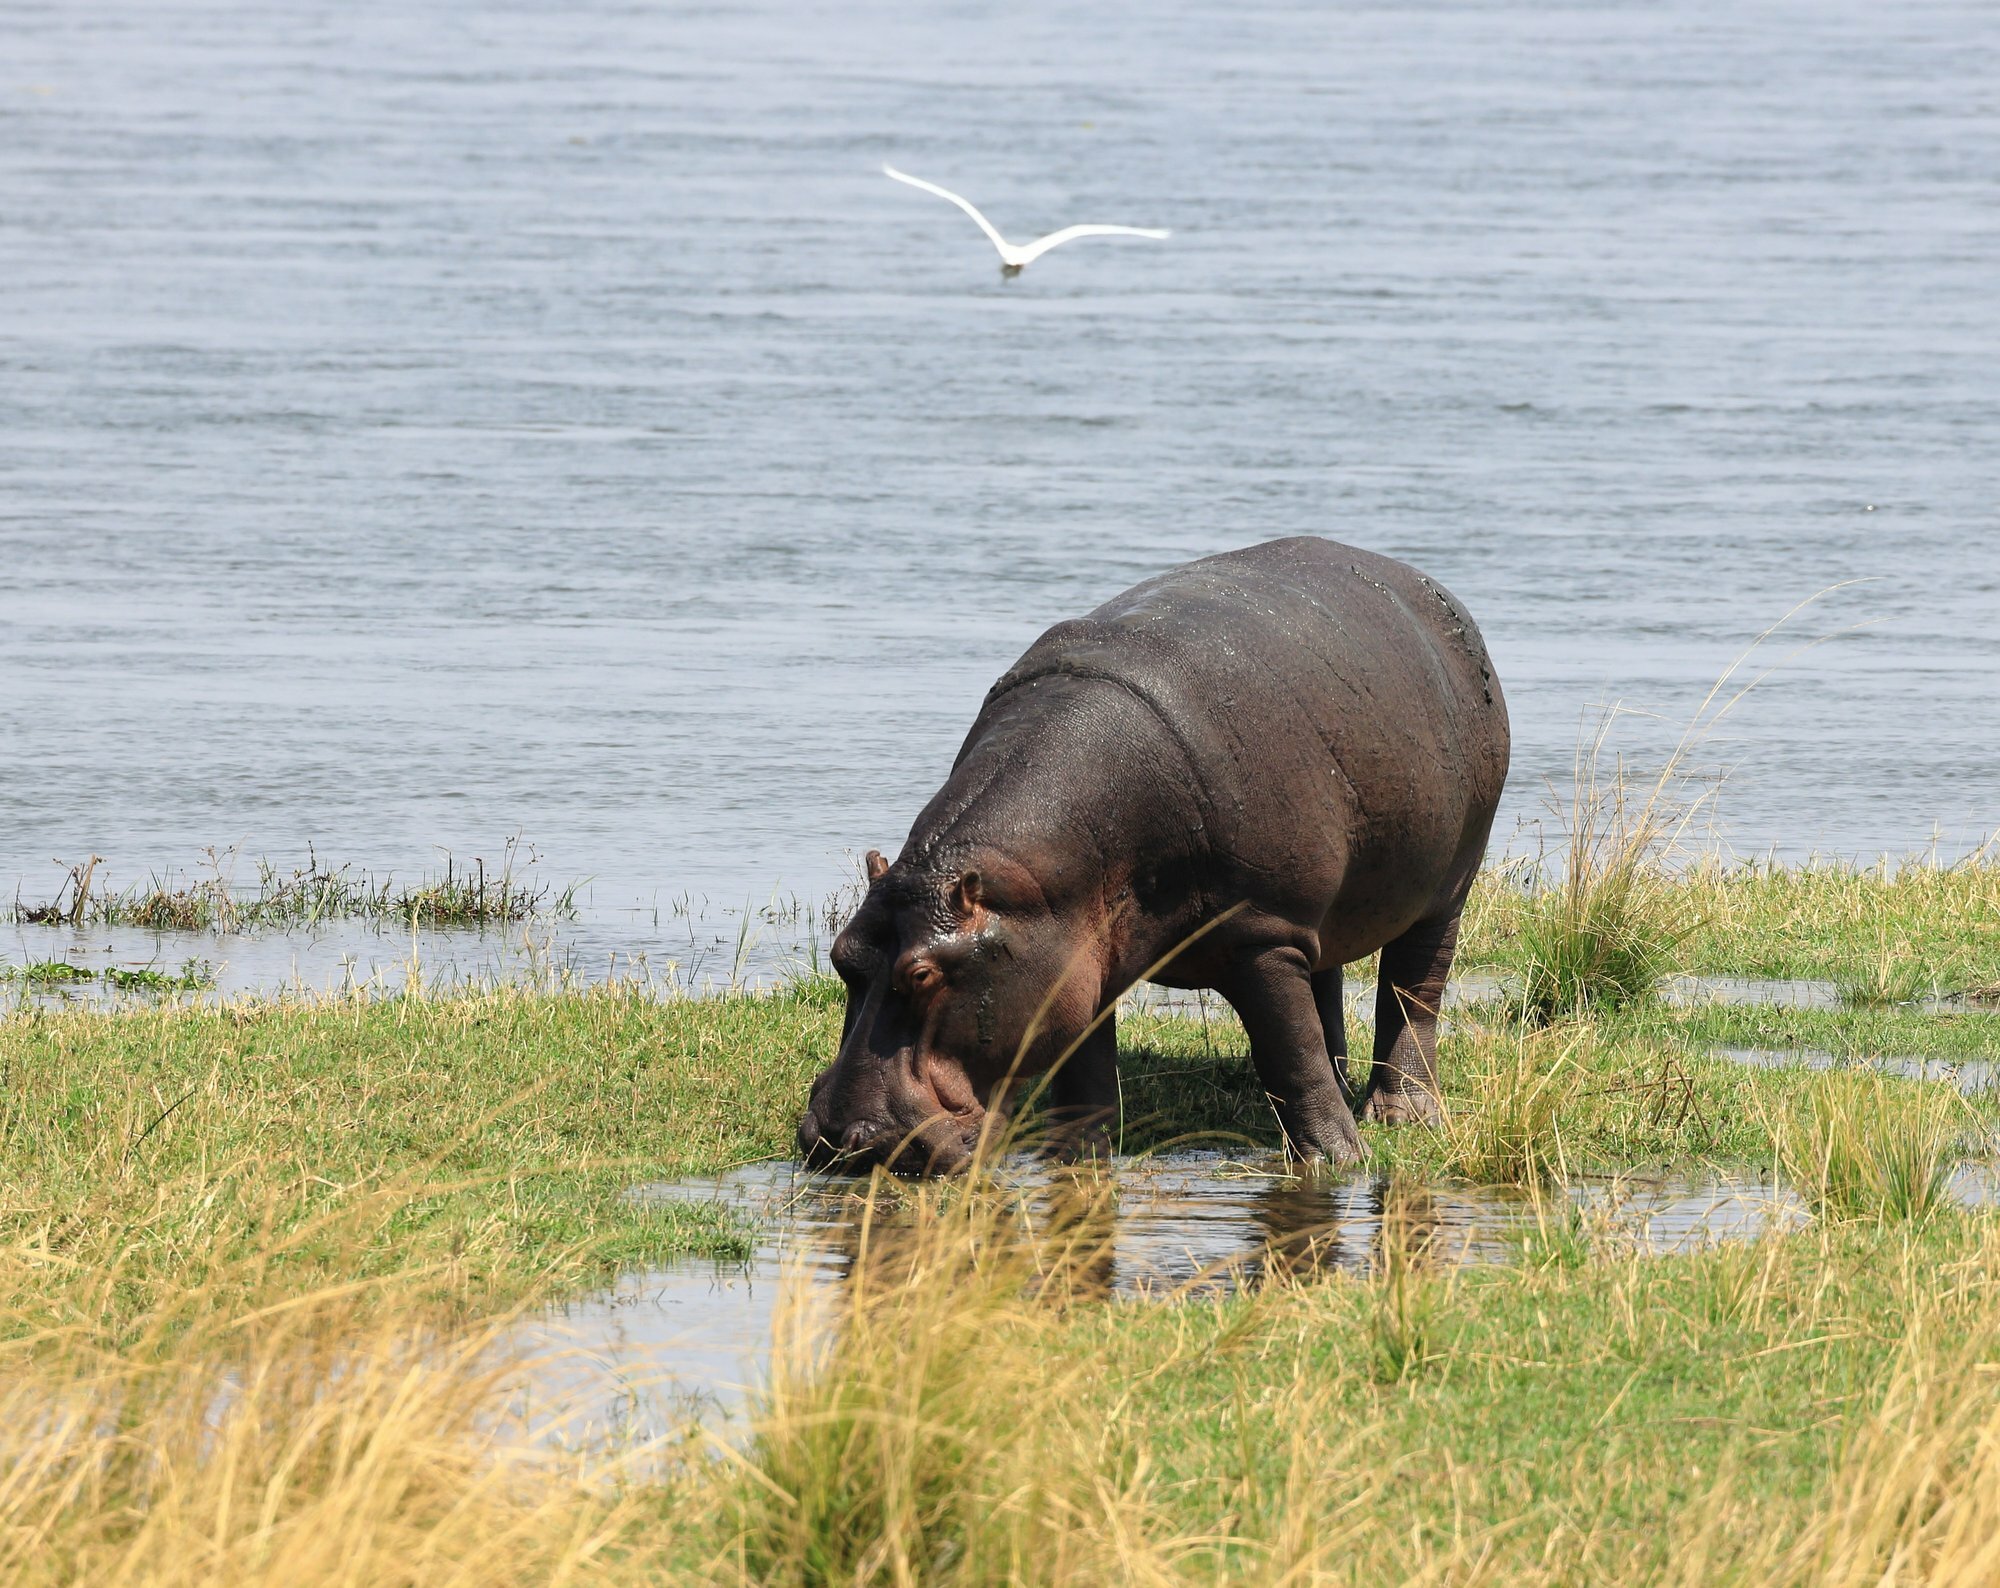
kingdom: Animalia
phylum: Chordata
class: Mammalia
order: Artiodactyla
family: Hippopotamidae
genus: Hippopotamus
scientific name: Hippopotamus amphibius
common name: Common hippopotamus
